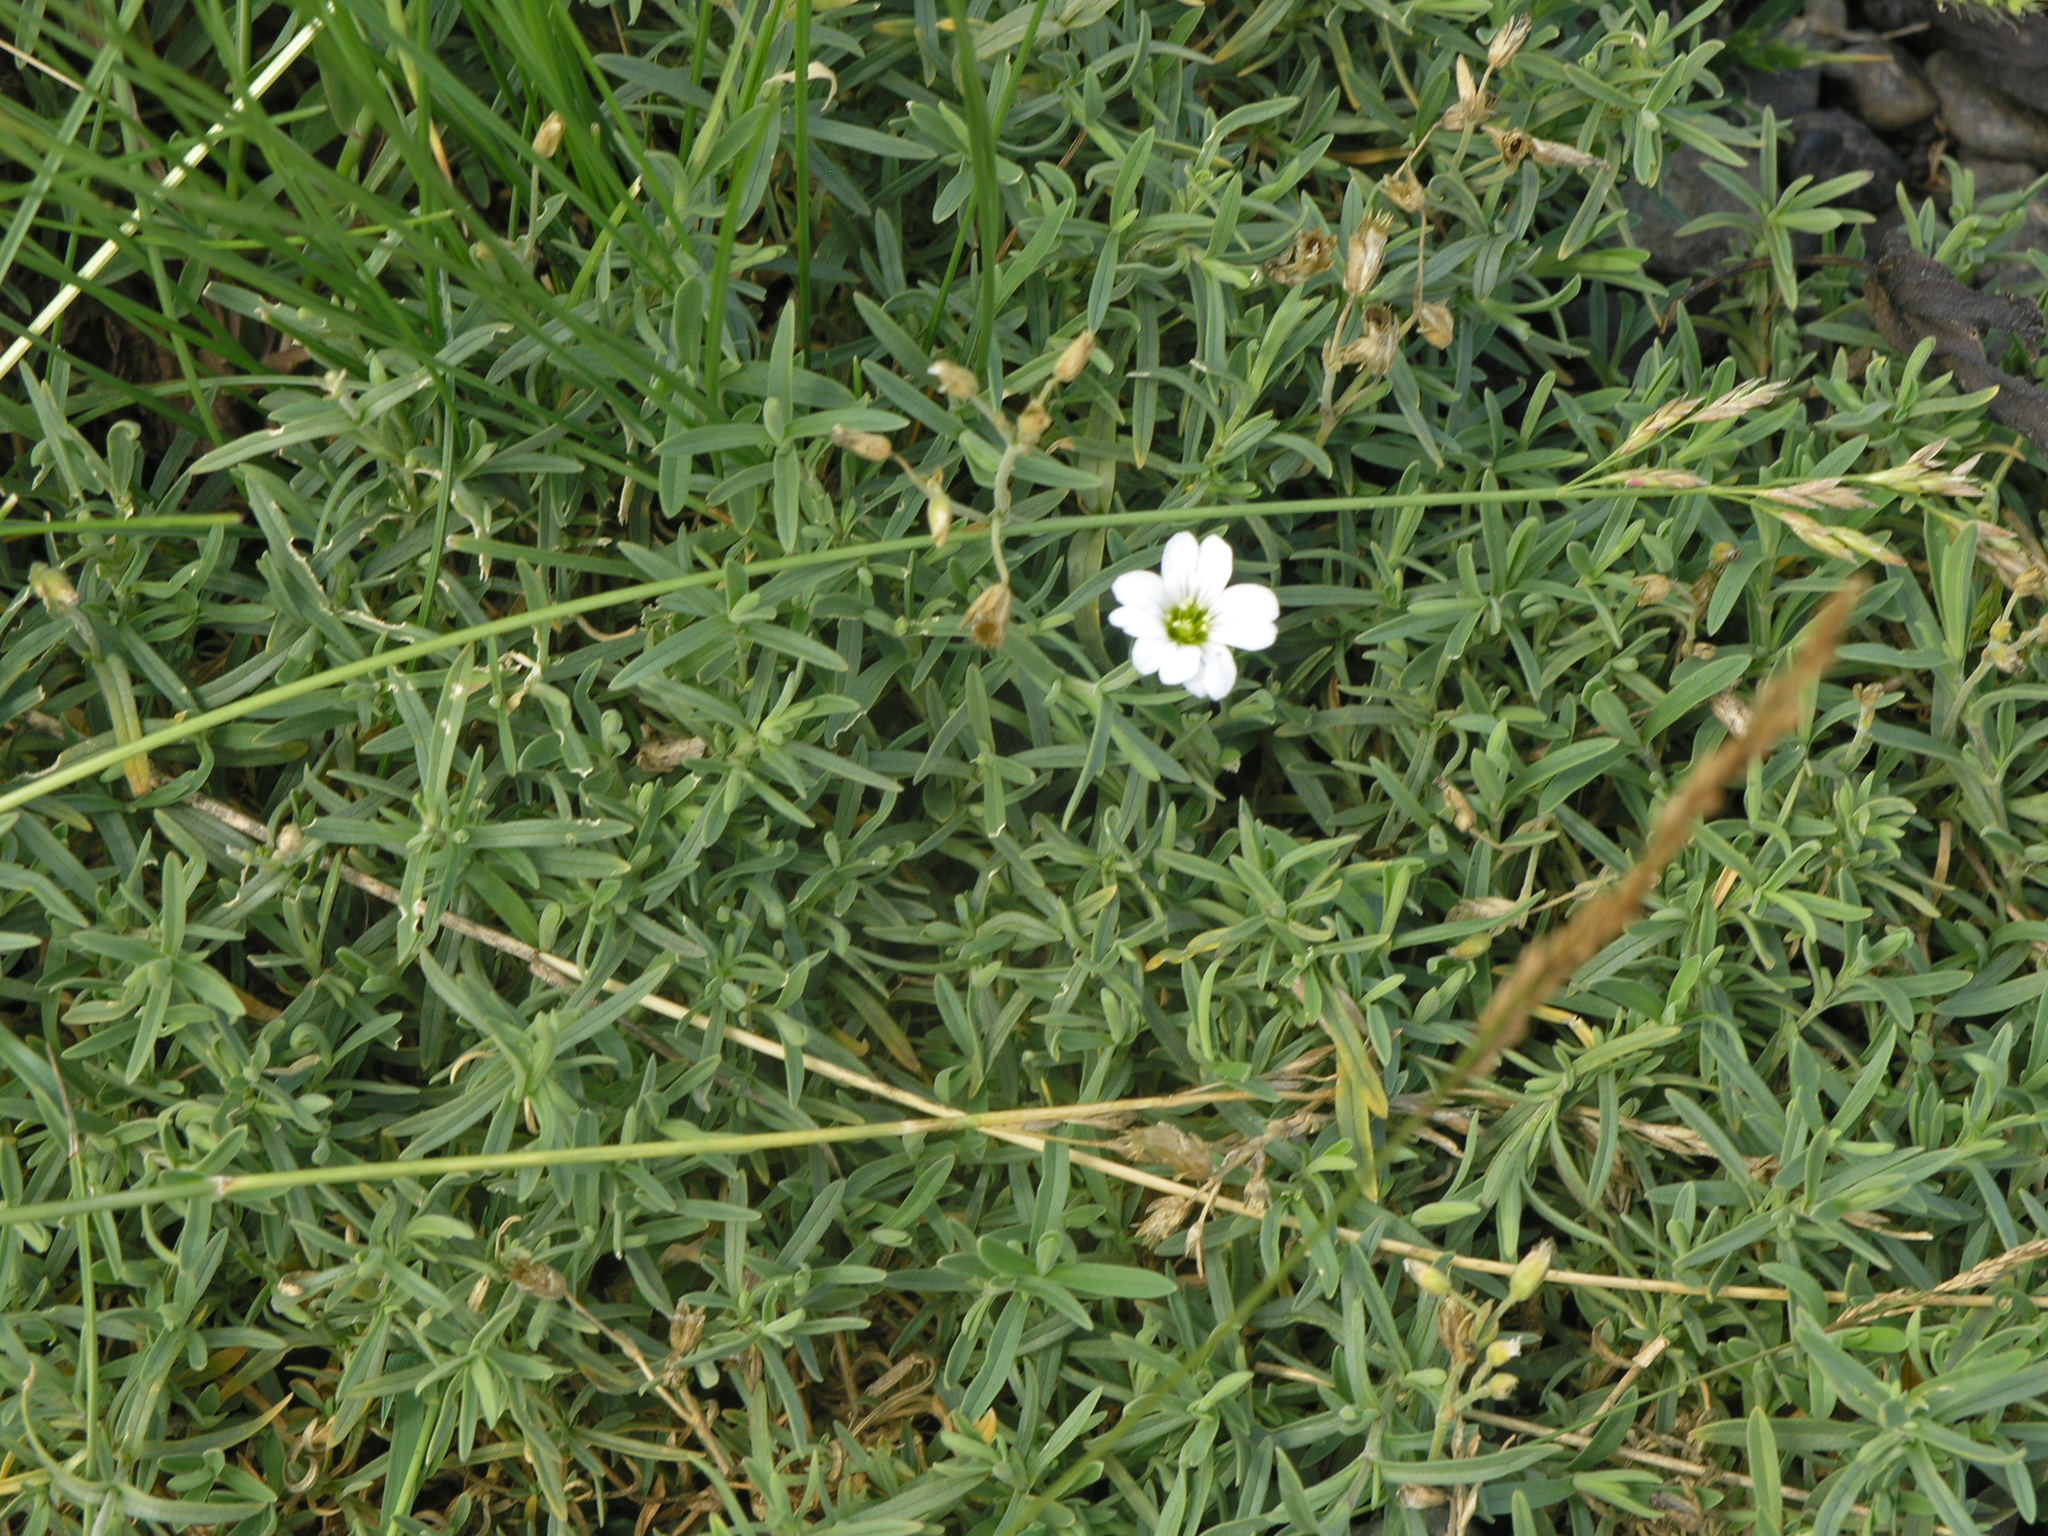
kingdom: Plantae
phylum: Tracheophyta
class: Magnoliopsida
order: Caryophyllales
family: Caryophyllaceae
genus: Cerastium
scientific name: Cerastium arvense
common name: Field mouse-ear
